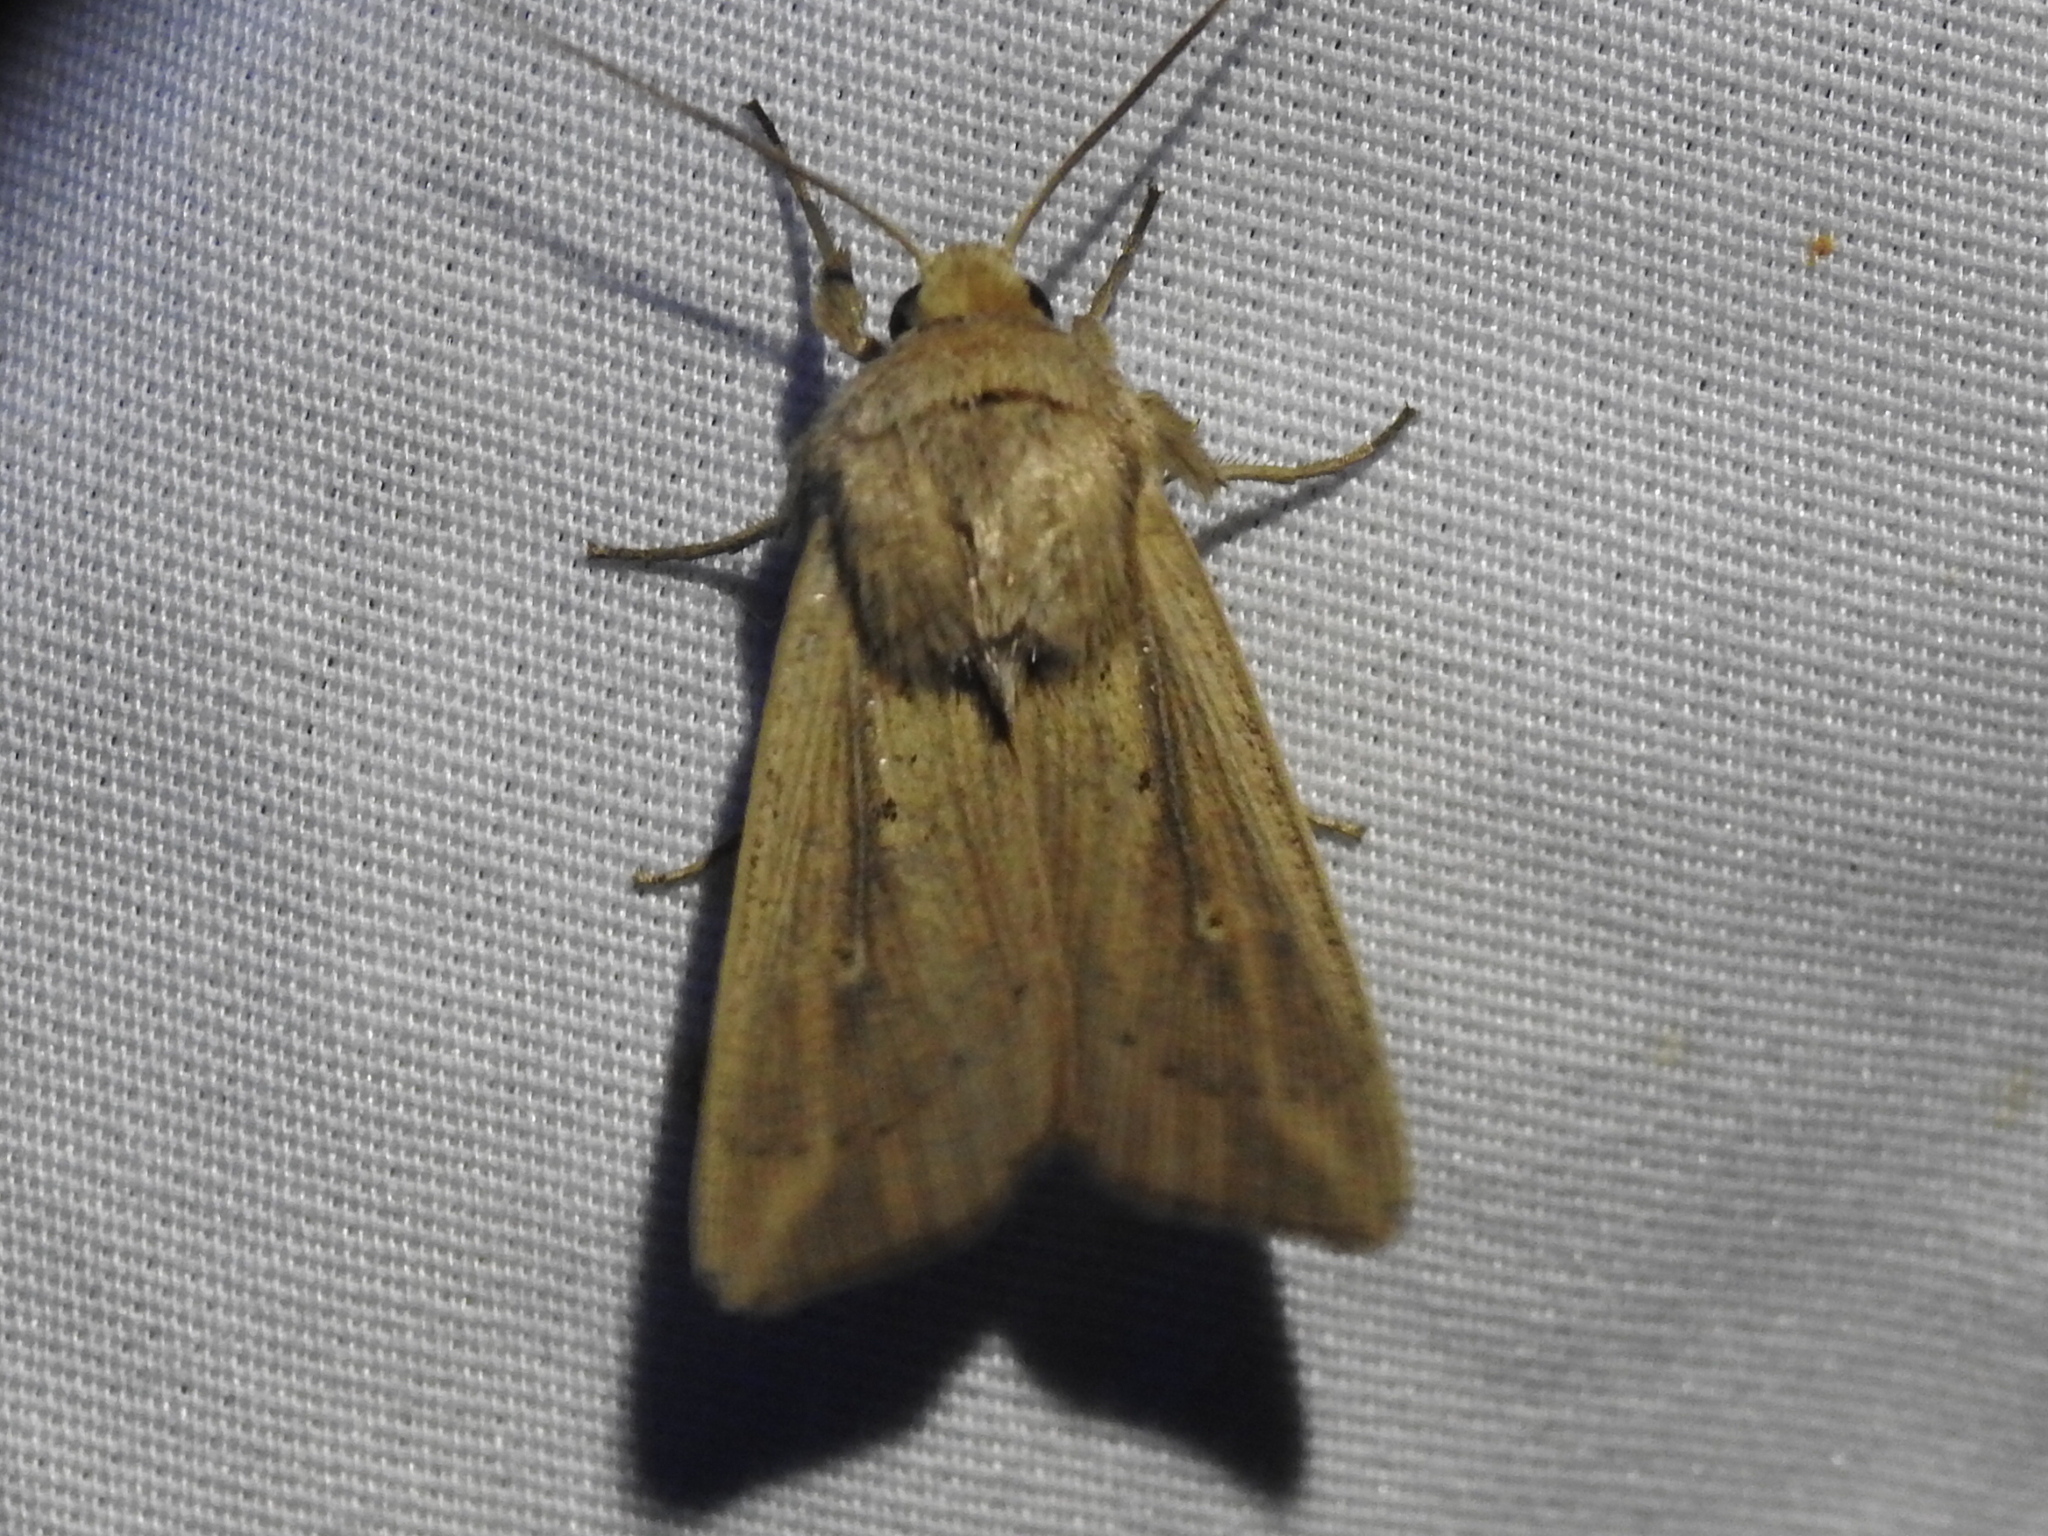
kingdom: Animalia
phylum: Arthropoda
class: Insecta
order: Lepidoptera
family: Noctuidae
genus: Leucania
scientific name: Leucania linda
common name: Linda's wainscot
